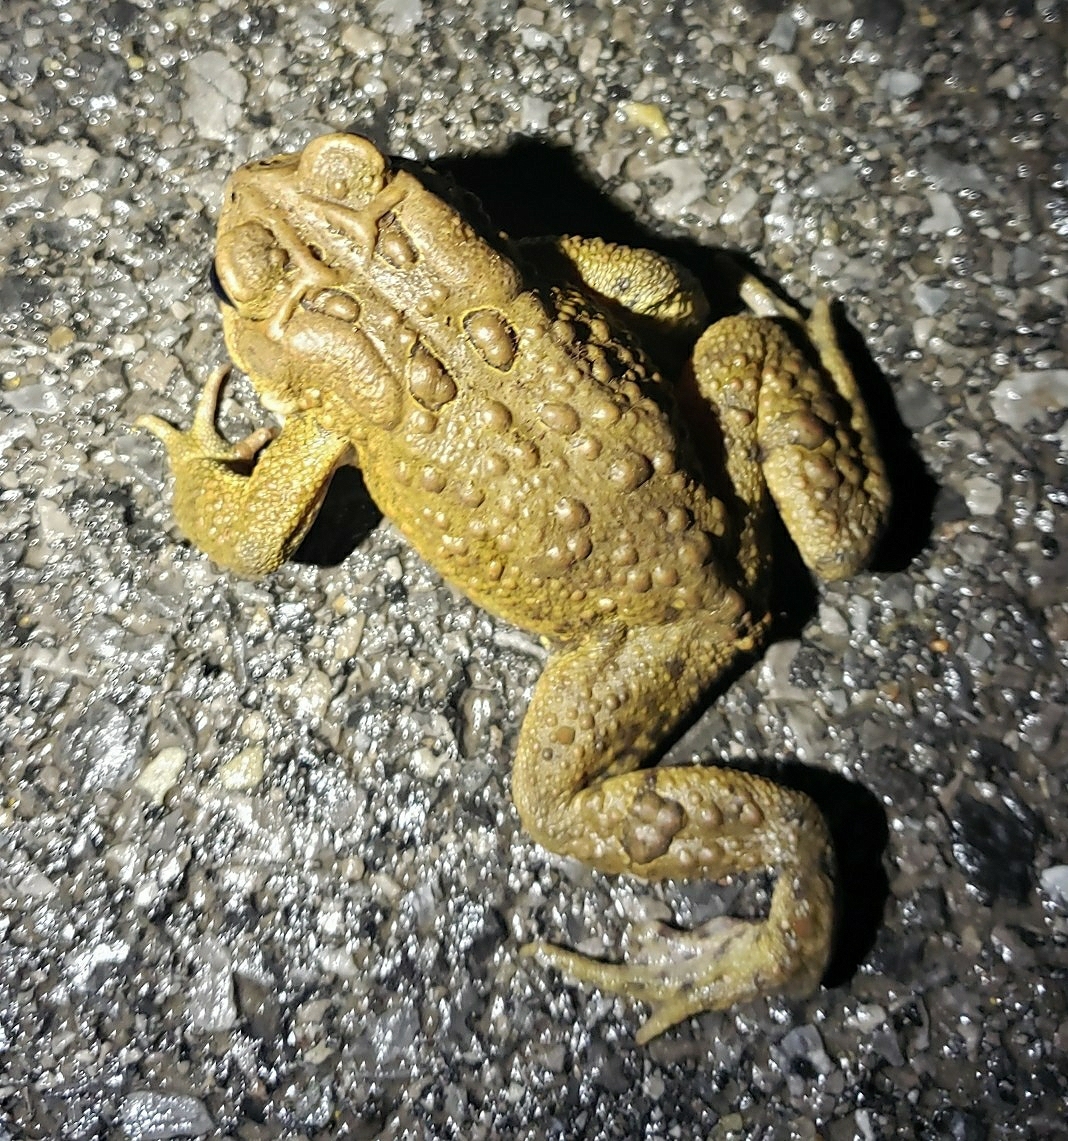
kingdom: Animalia
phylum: Chordata
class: Amphibia
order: Anura
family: Bufonidae
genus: Anaxyrus
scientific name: Anaxyrus americanus
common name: American toad
